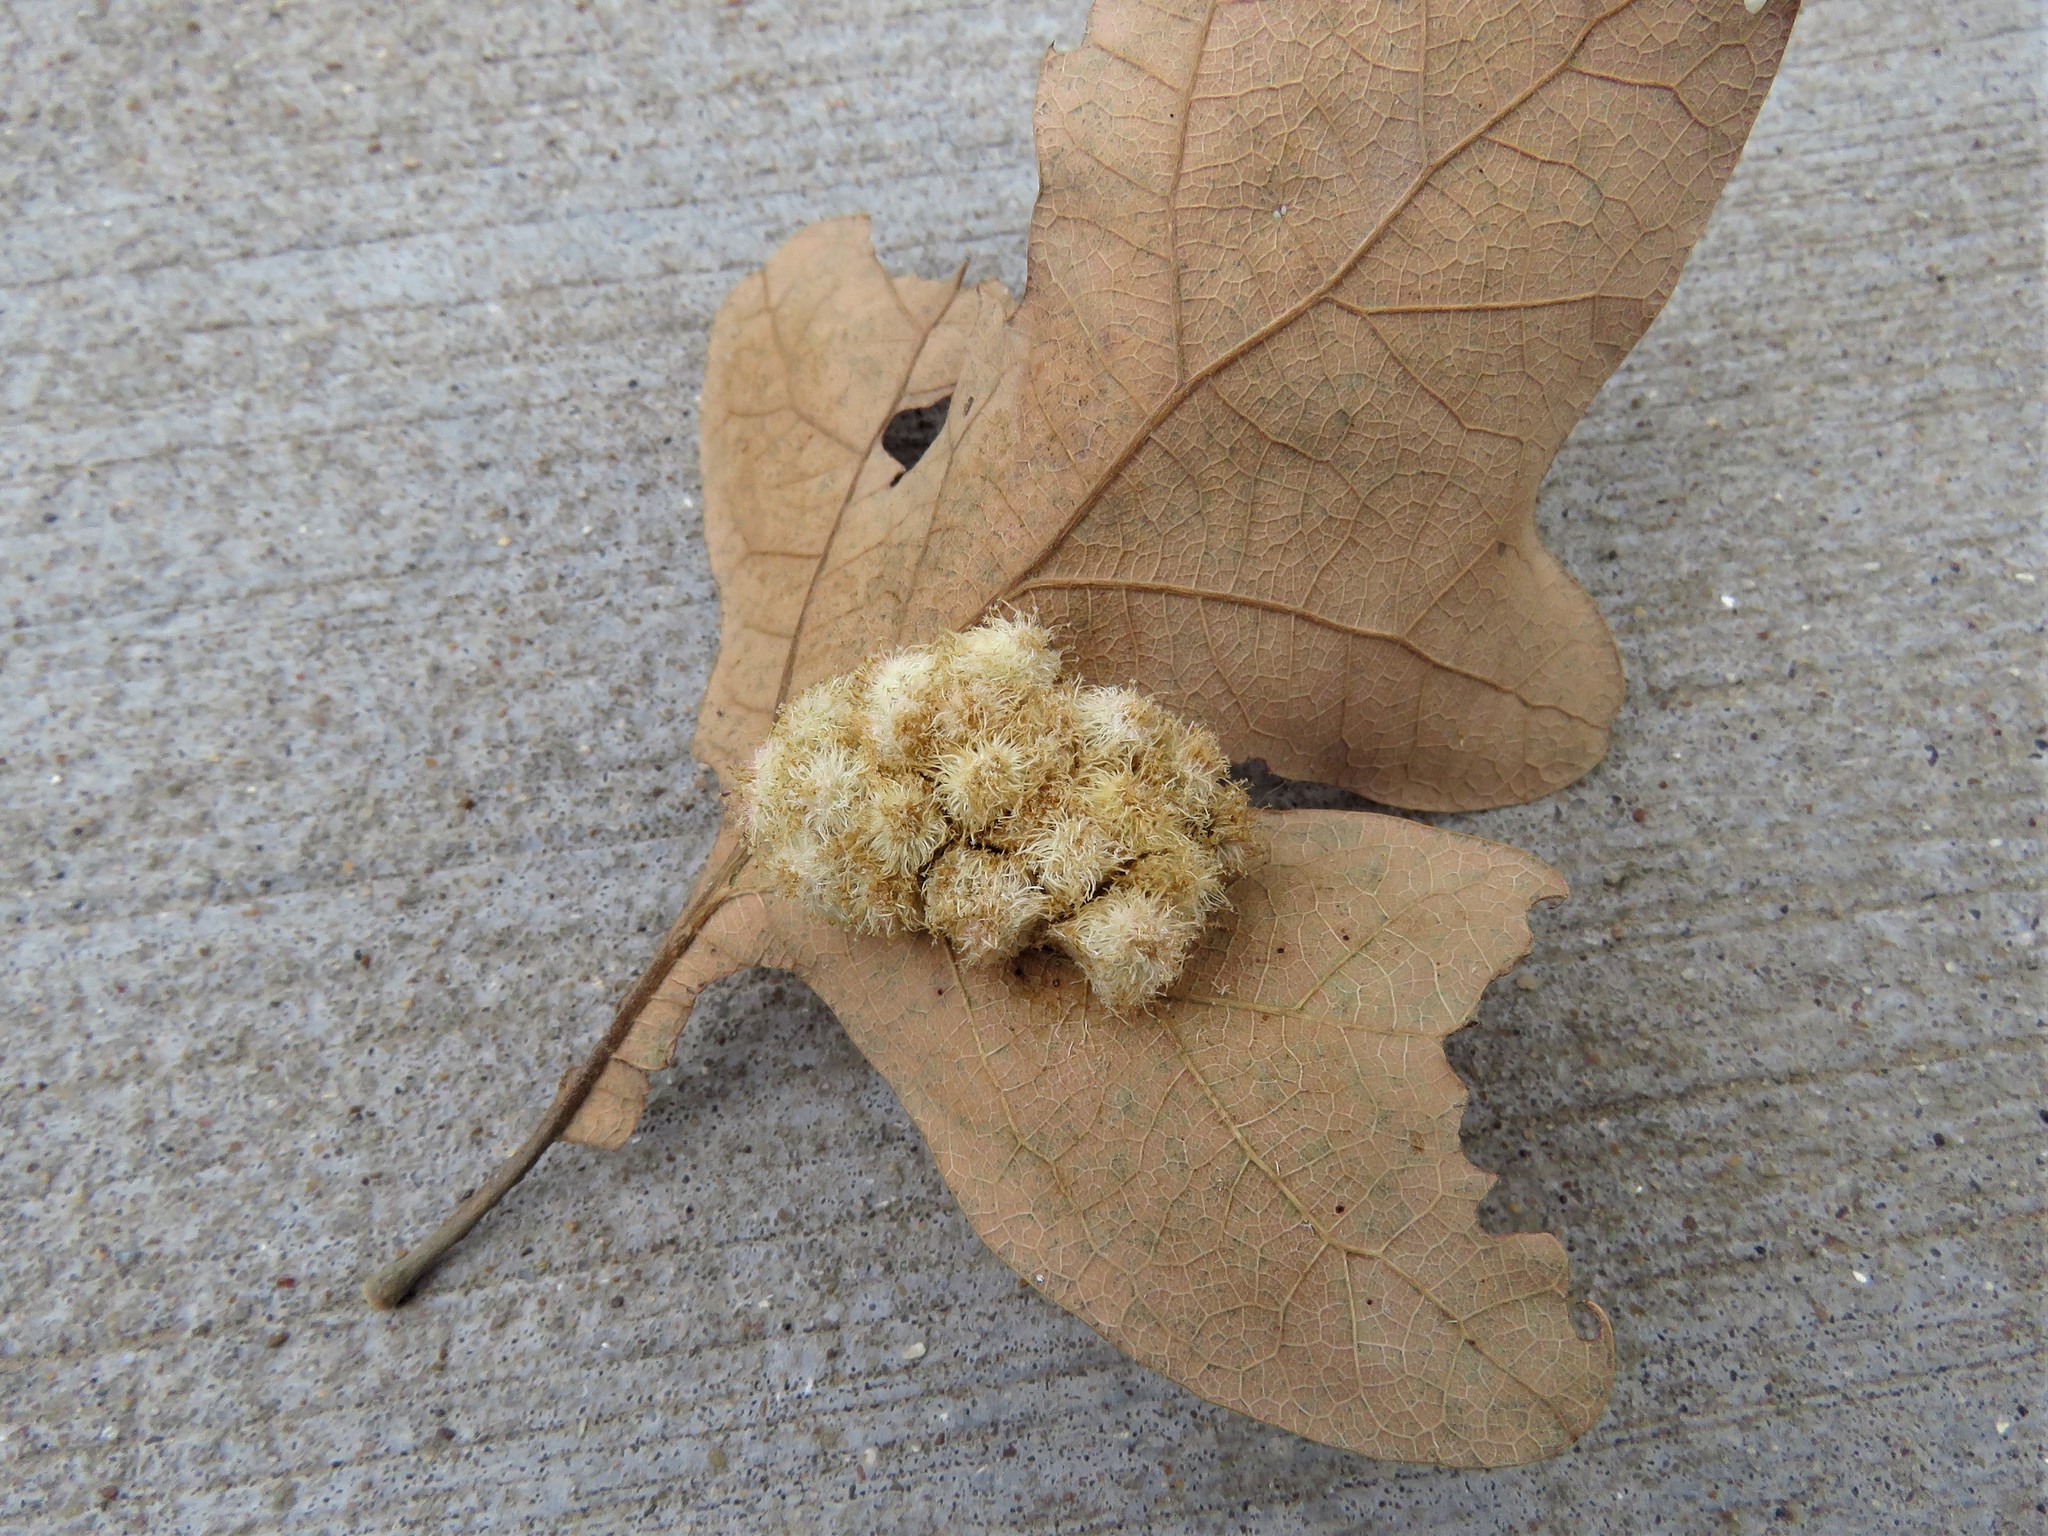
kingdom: Animalia
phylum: Arthropoda
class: Insecta
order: Hymenoptera
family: Cynipidae
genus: Andricus
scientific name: Andricus
